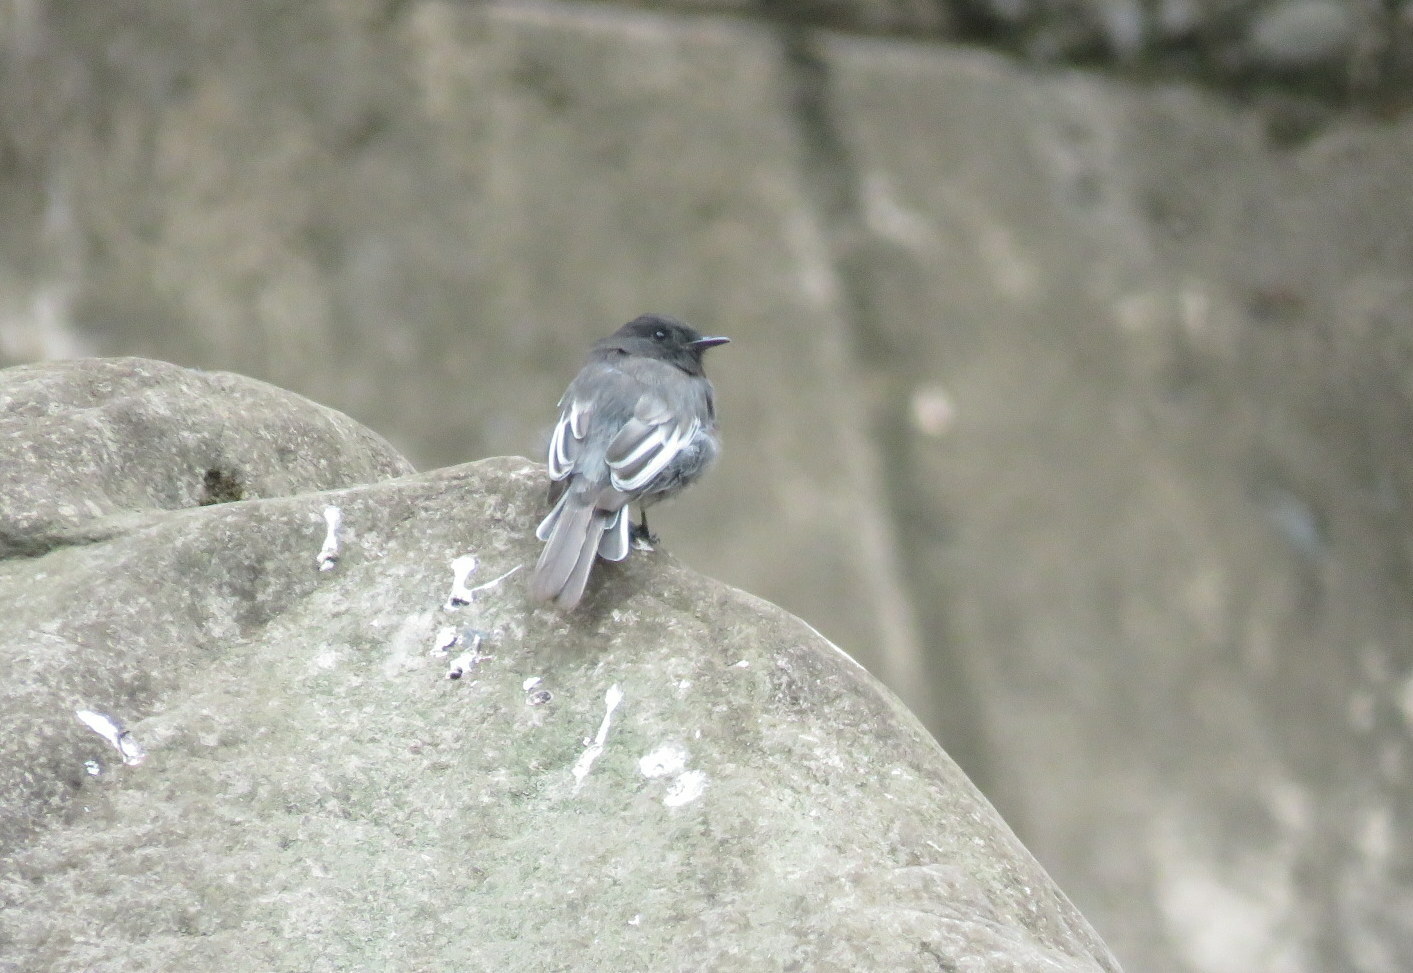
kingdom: Animalia
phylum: Chordata
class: Aves
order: Passeriformes
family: Tyrannidae
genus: Sayornis
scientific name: Sayornis nigricans
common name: Black phoebe
